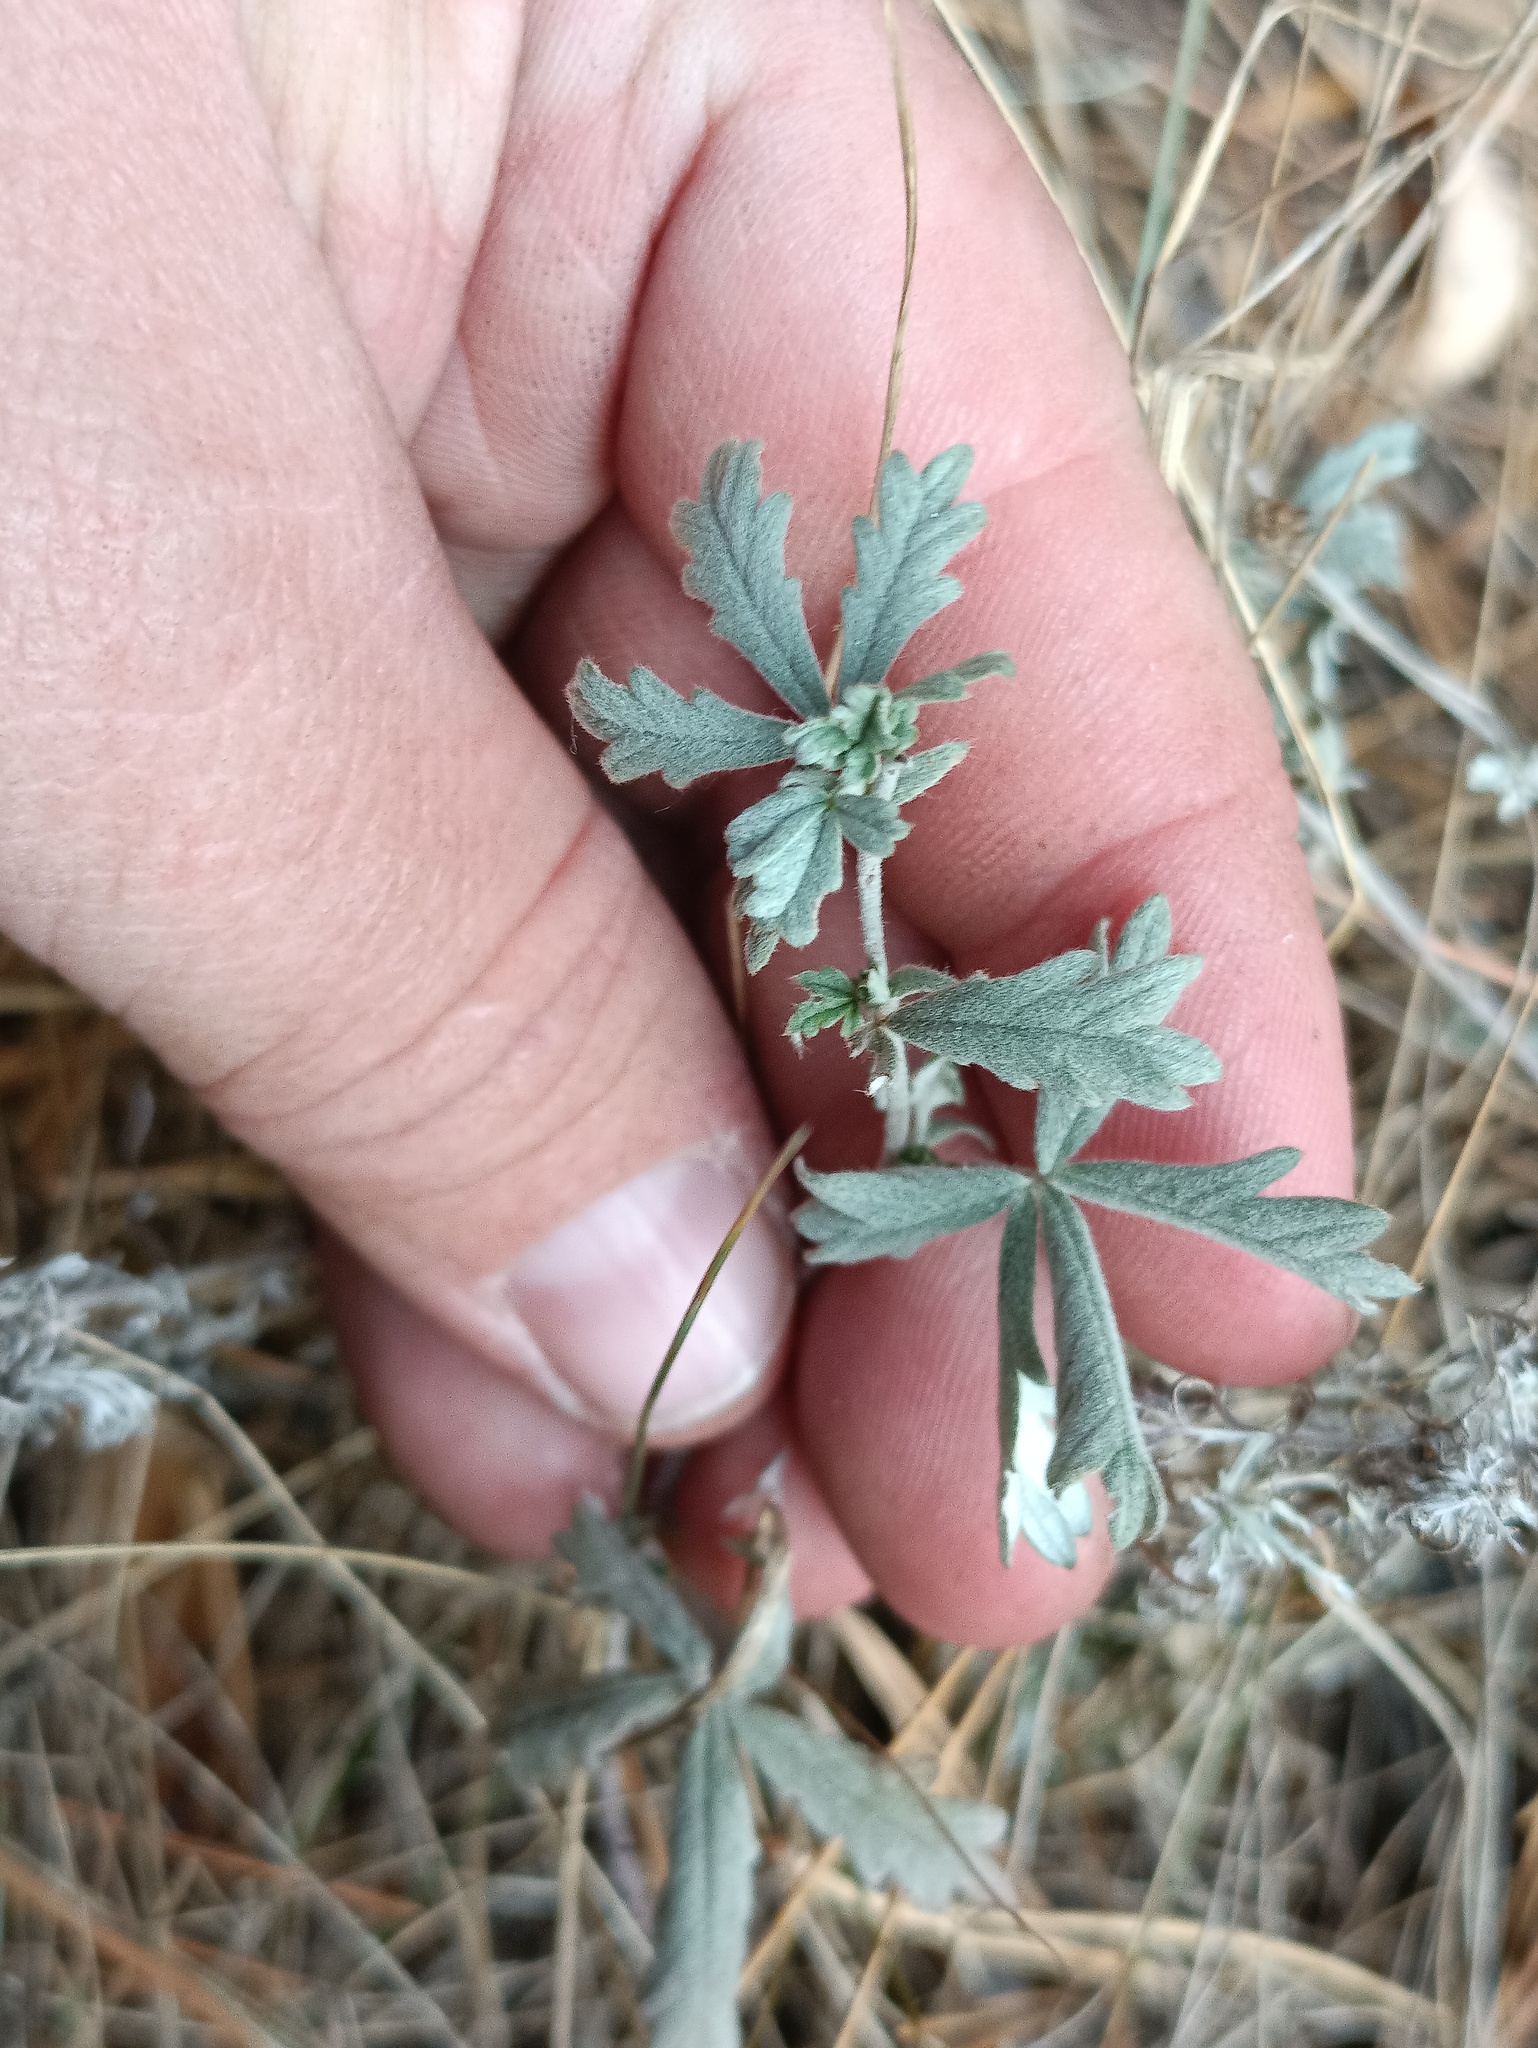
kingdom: Plantae
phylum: Tracheophyta
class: Magnoliopsida
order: Rosales
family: Rosaceae
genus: Potentilla
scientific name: Potentilla argentea
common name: Hoary cinquefoil
